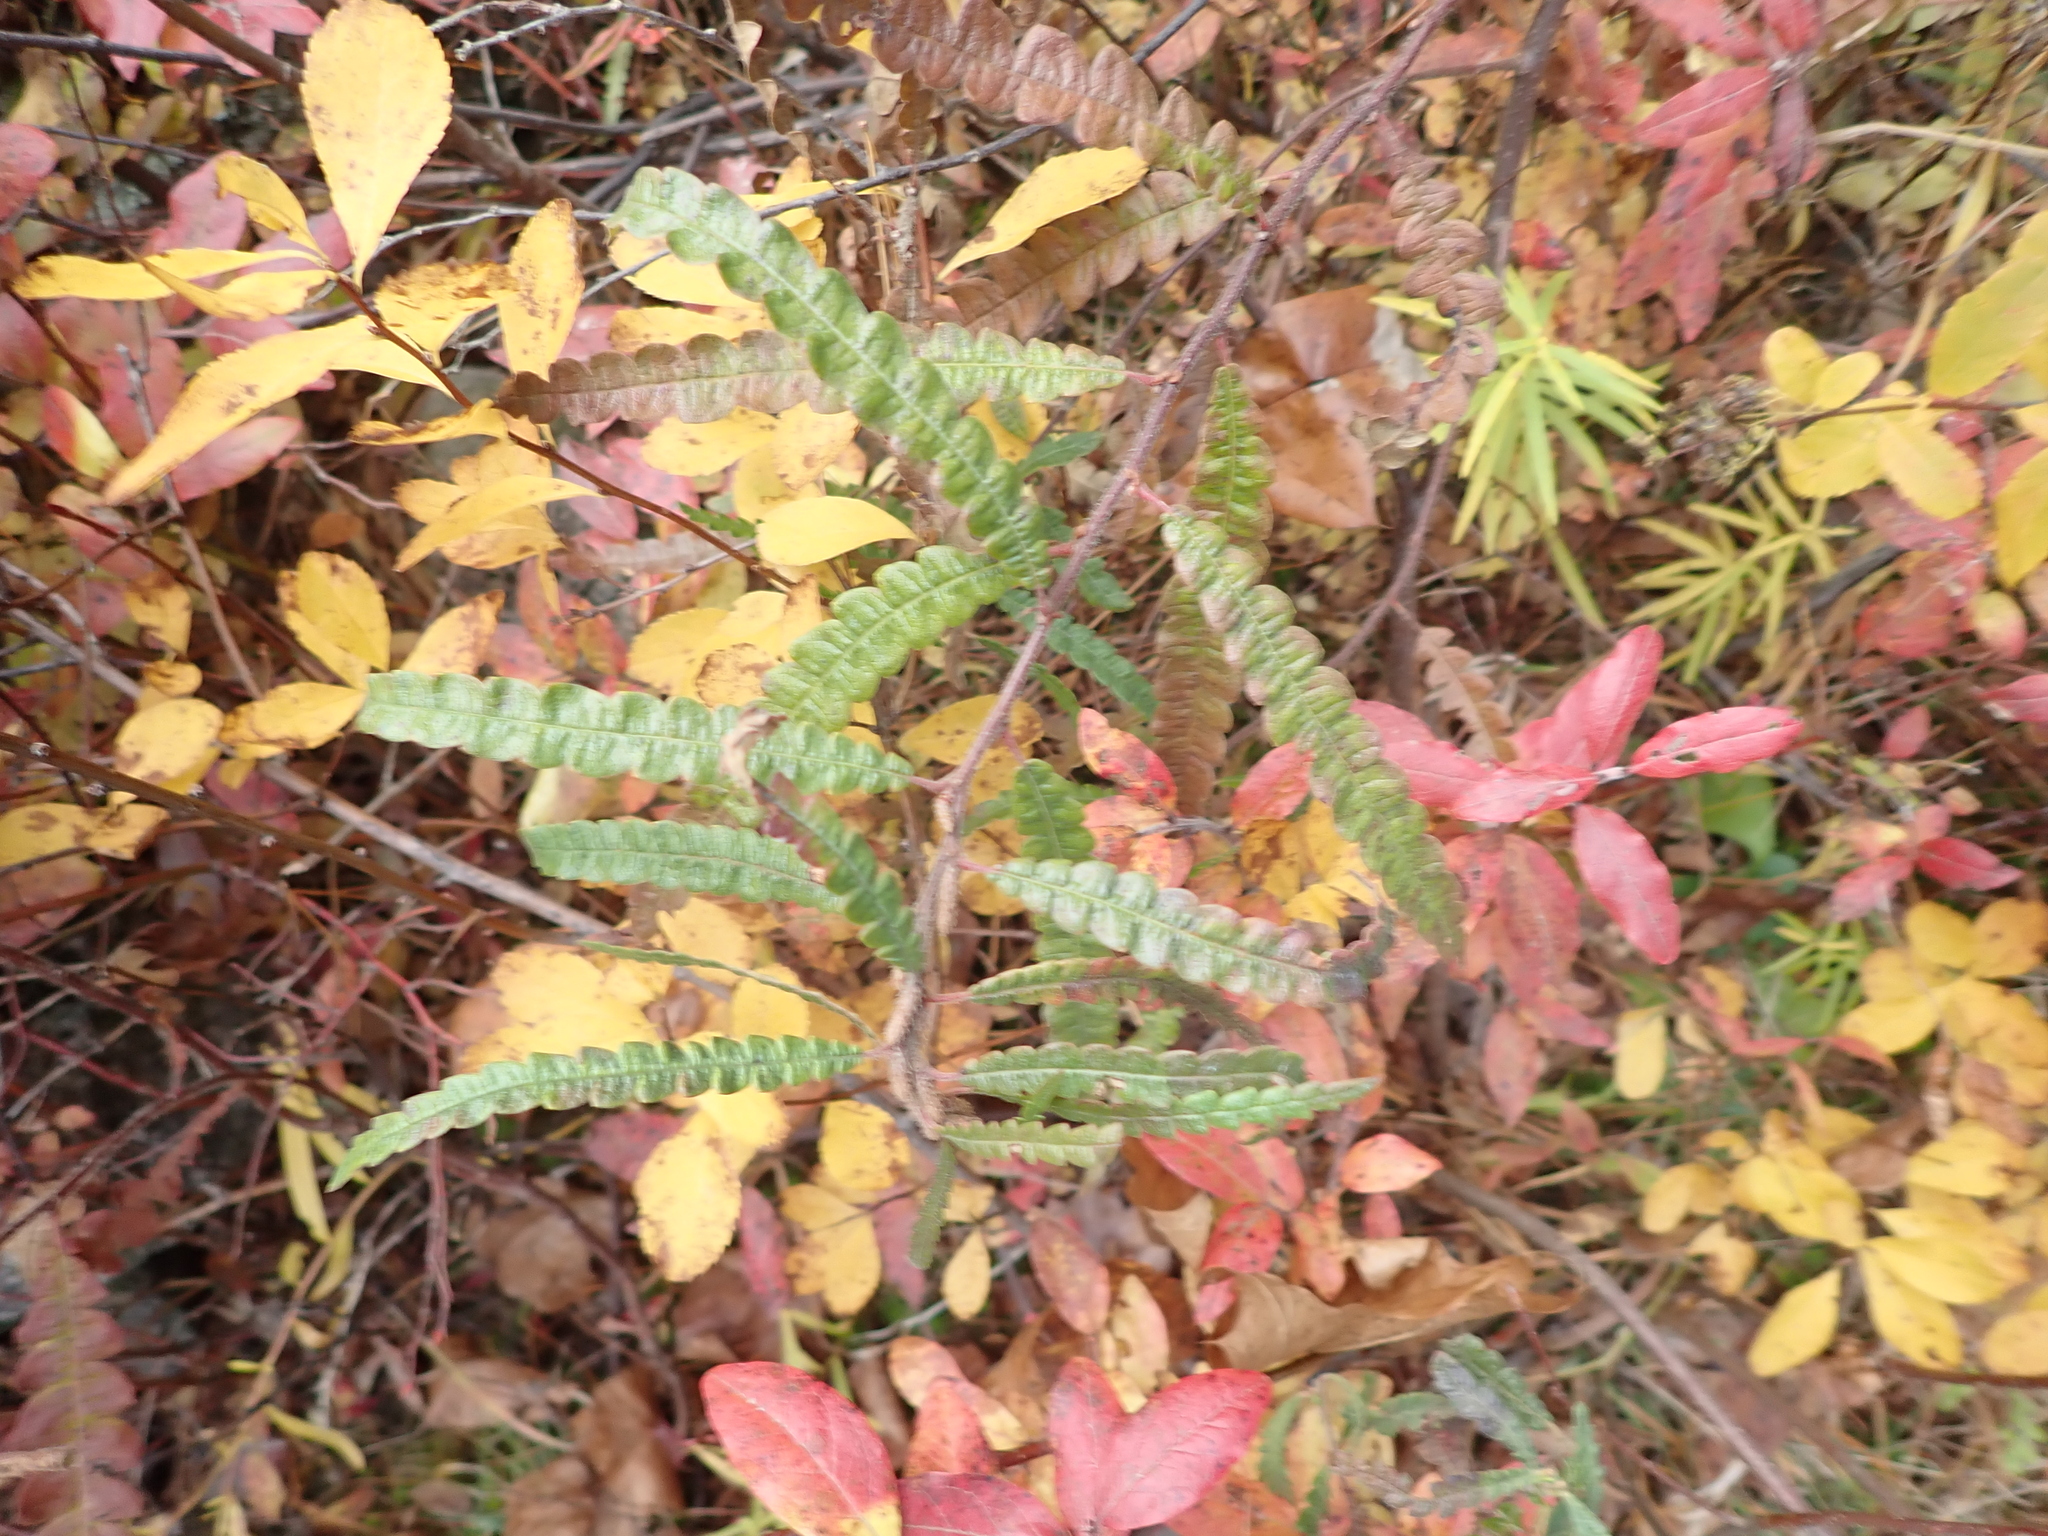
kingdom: Plantae
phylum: Tracheophyta
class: Magnoliopsida
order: Fagales
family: Myricaceae
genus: Comptonia
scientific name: Comptonia peregrina
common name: Sweet-fern
